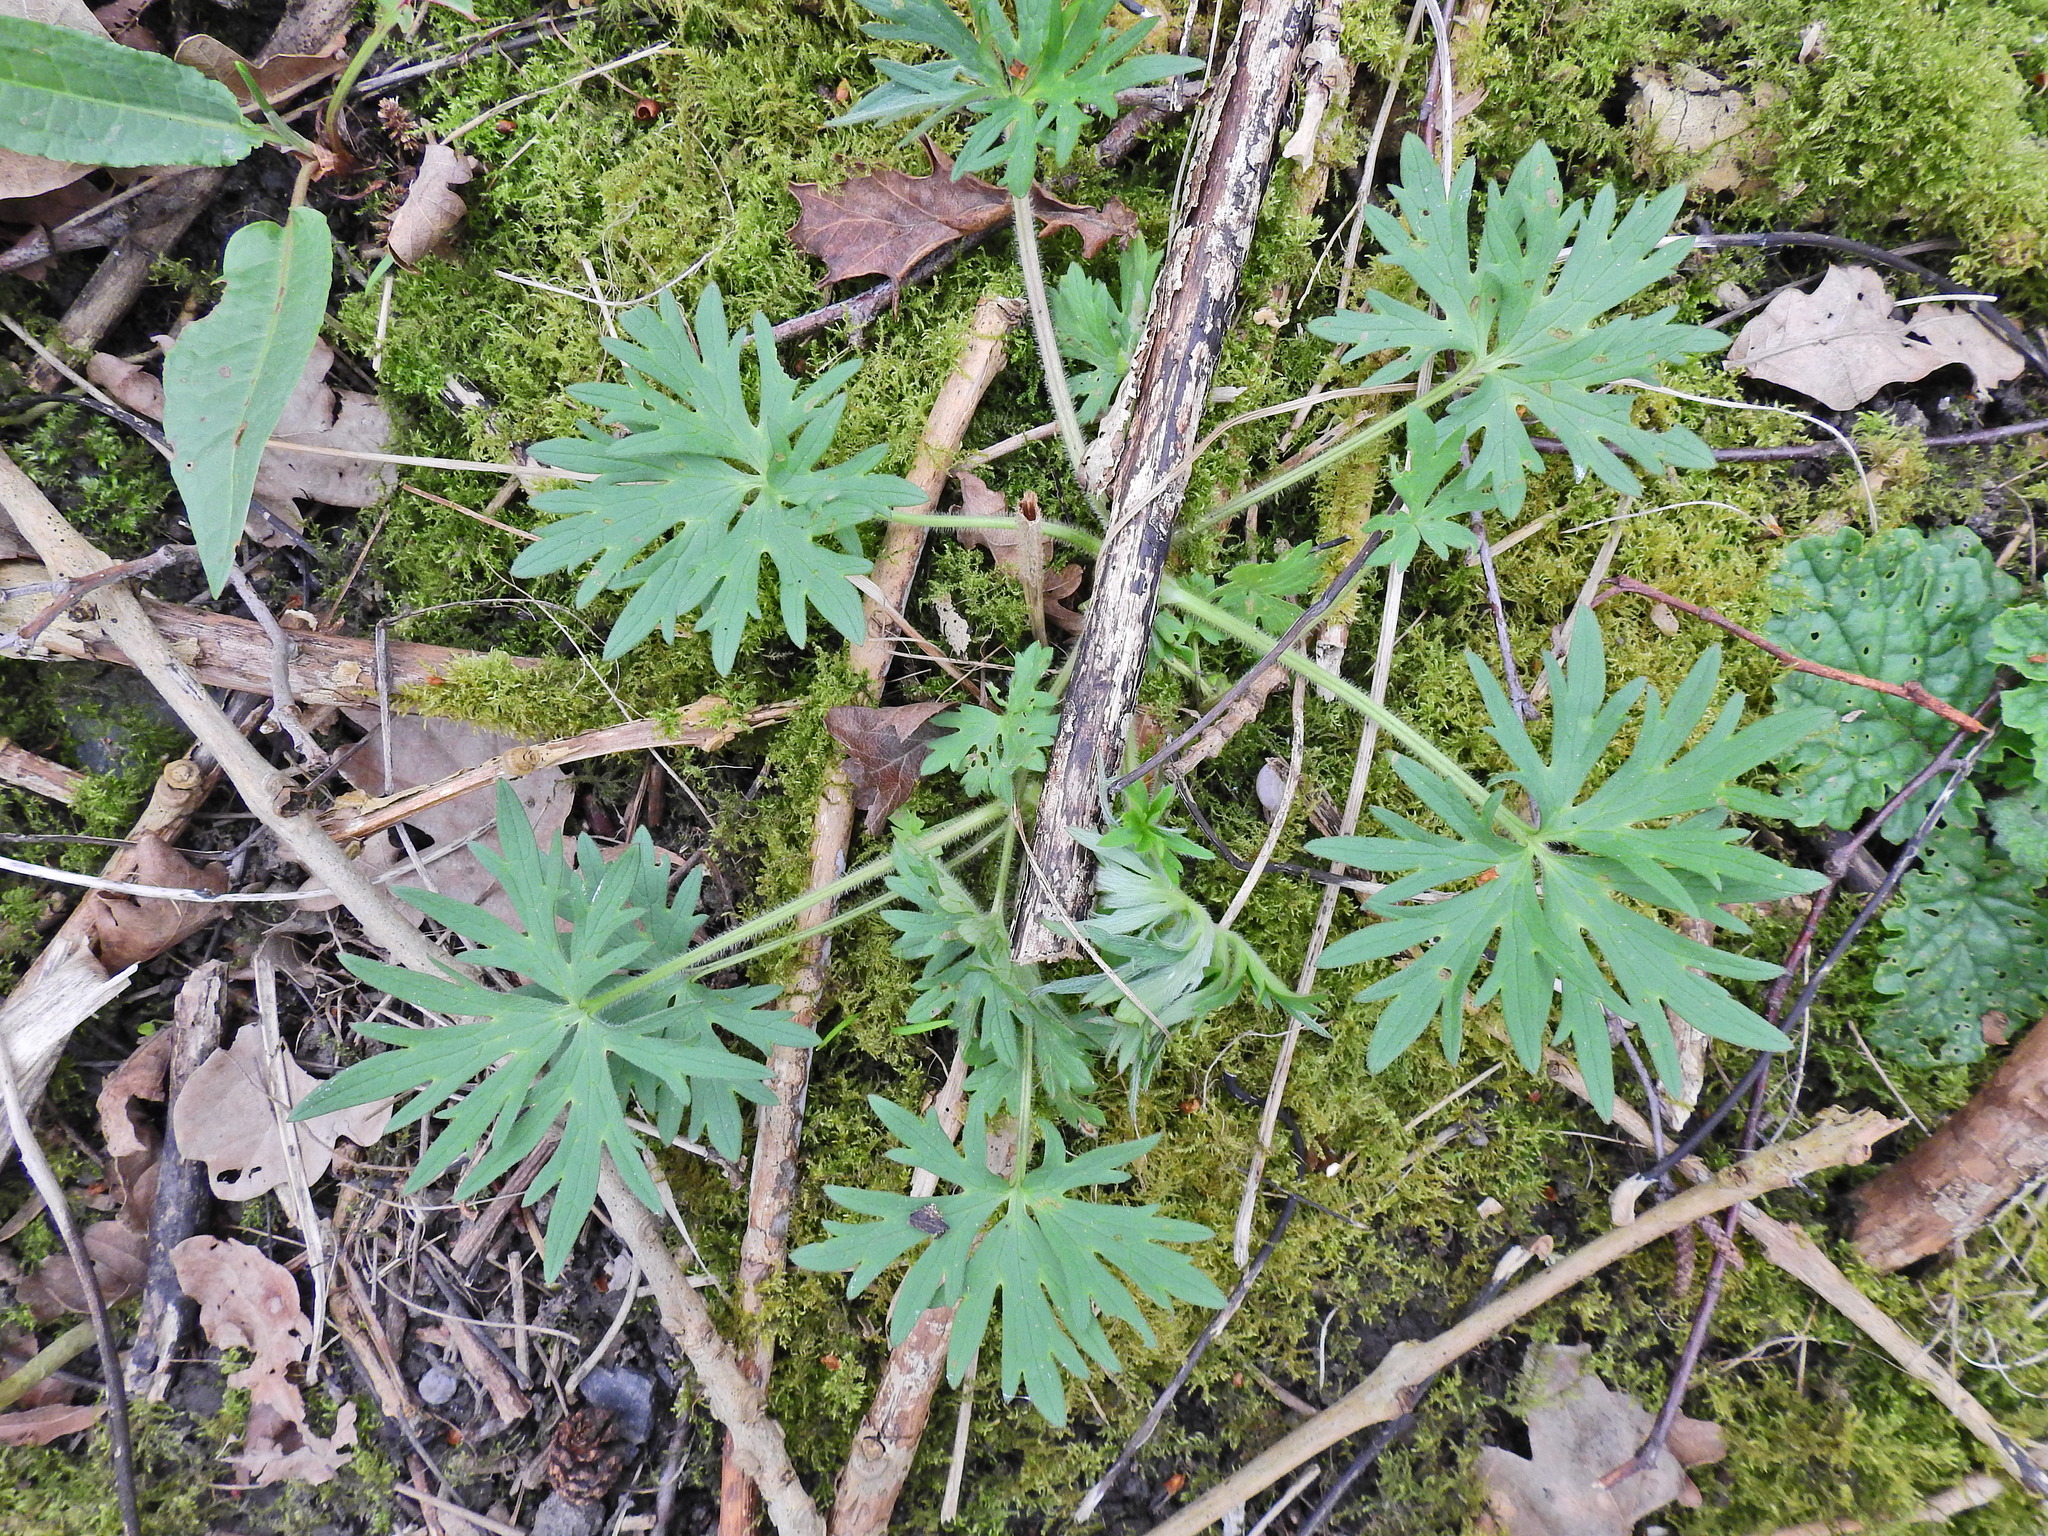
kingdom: Plantae
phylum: Tracheophyta
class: Magnoliopsida
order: Ranunculales
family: Ranunculaceae
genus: Ranunculus
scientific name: Ranunculus acris
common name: Meadow buttercup
